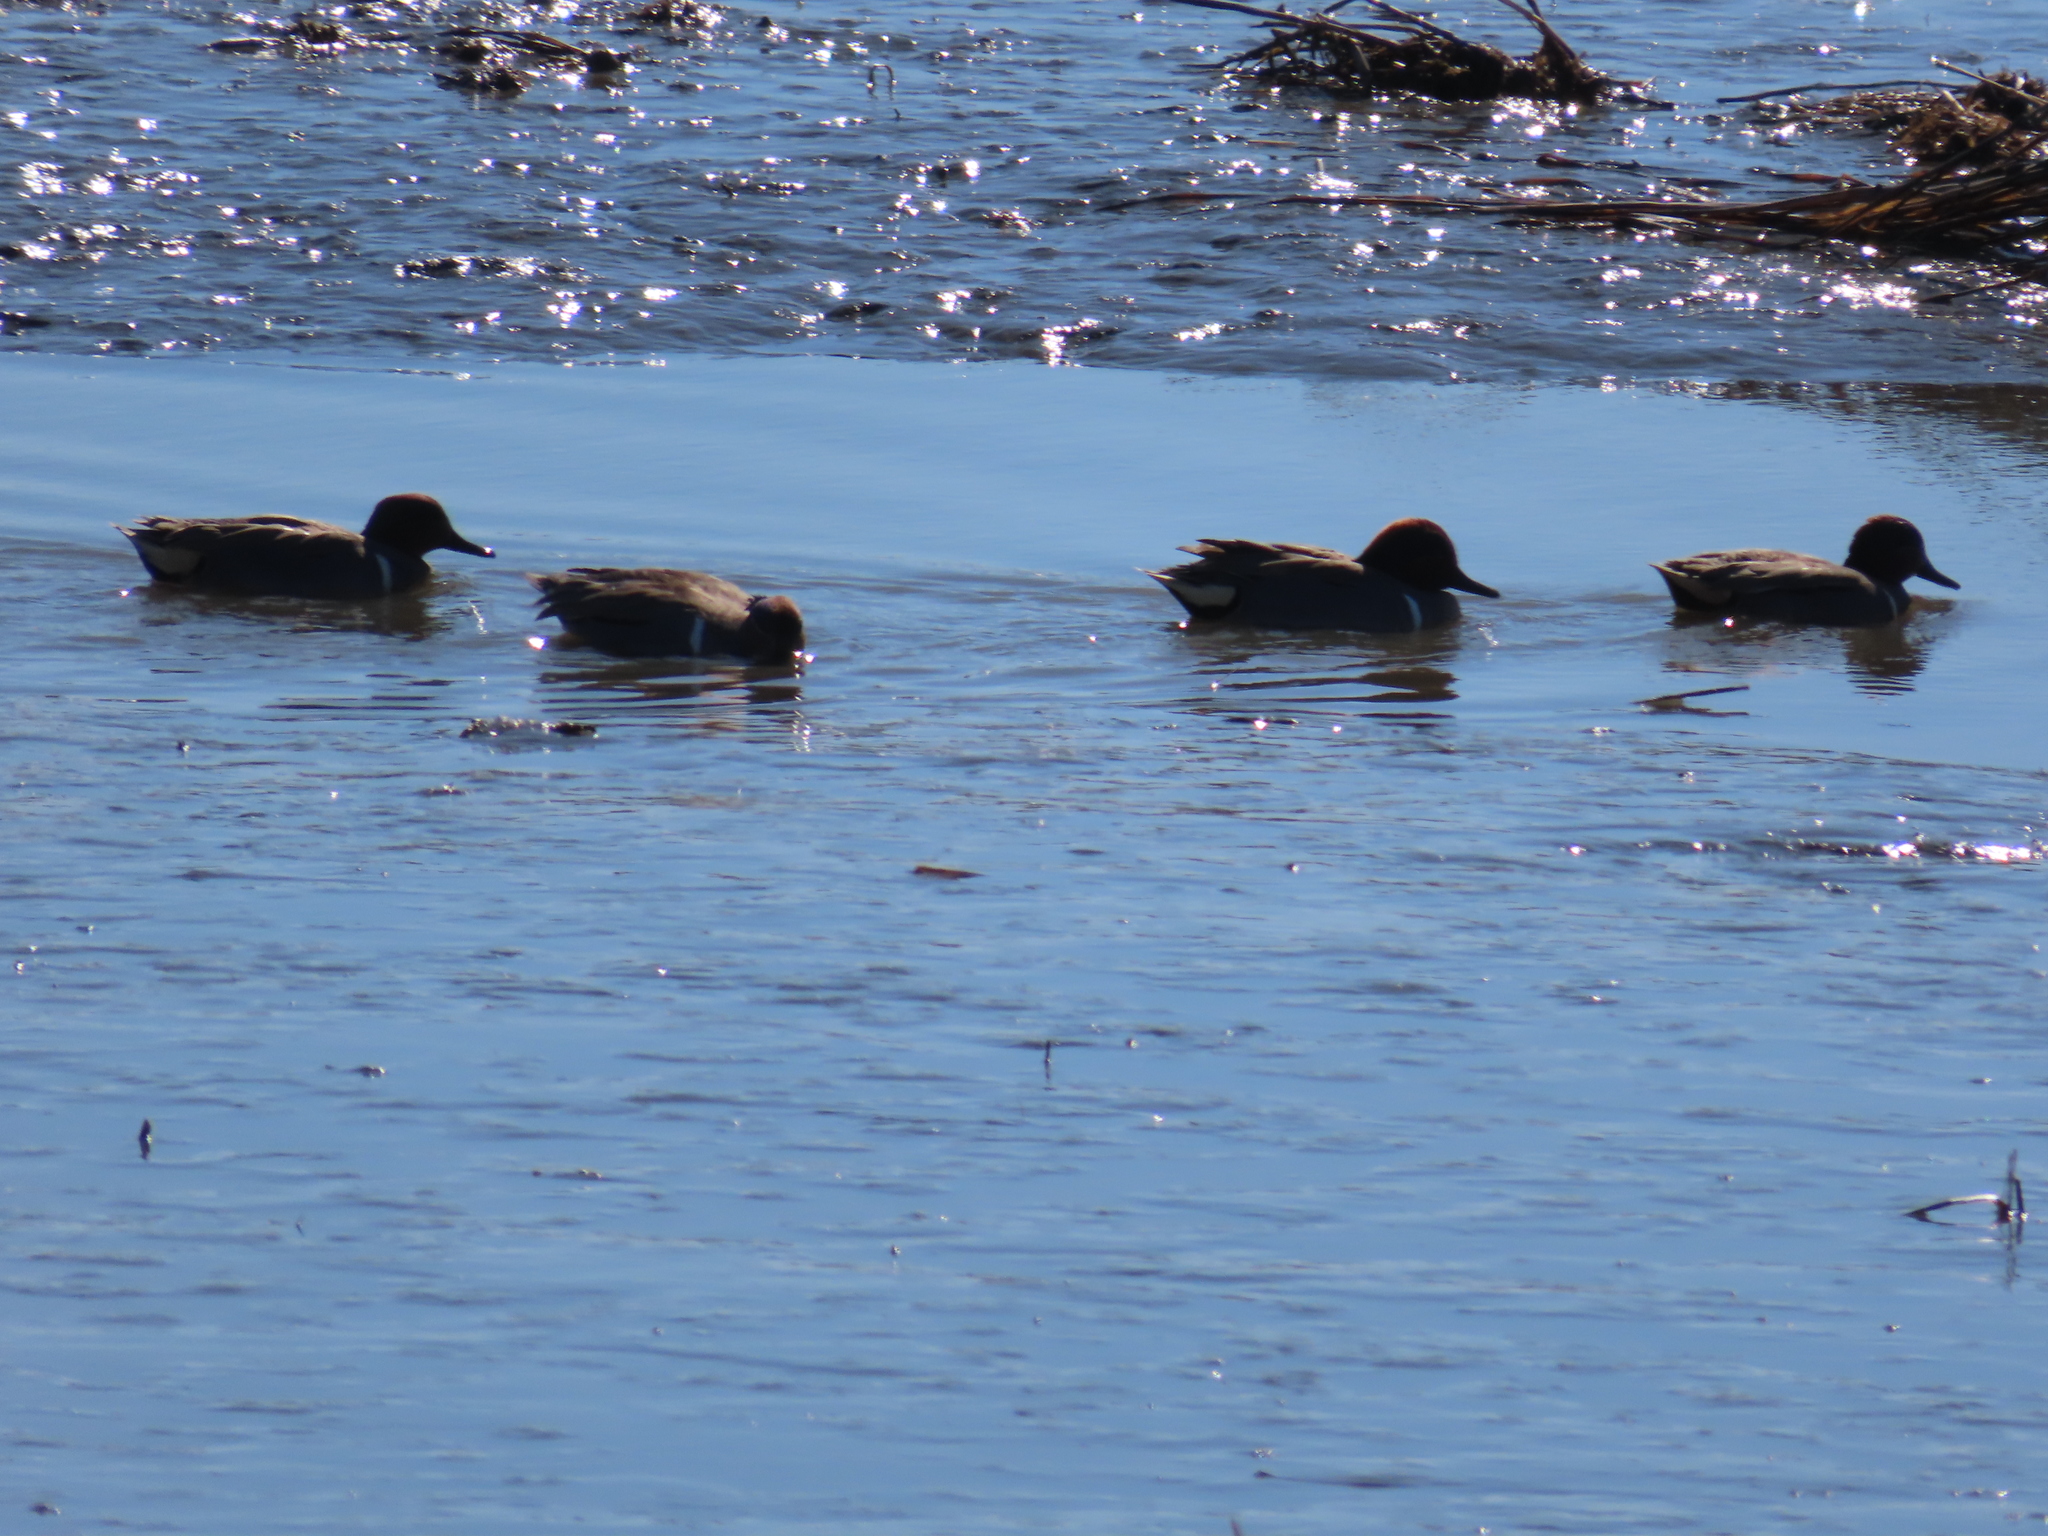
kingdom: Animalia
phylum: Chordata
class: Aves
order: Anseriformes
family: Anatidae
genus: Anas
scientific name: Anas carolinensis
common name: Green-winged teal
